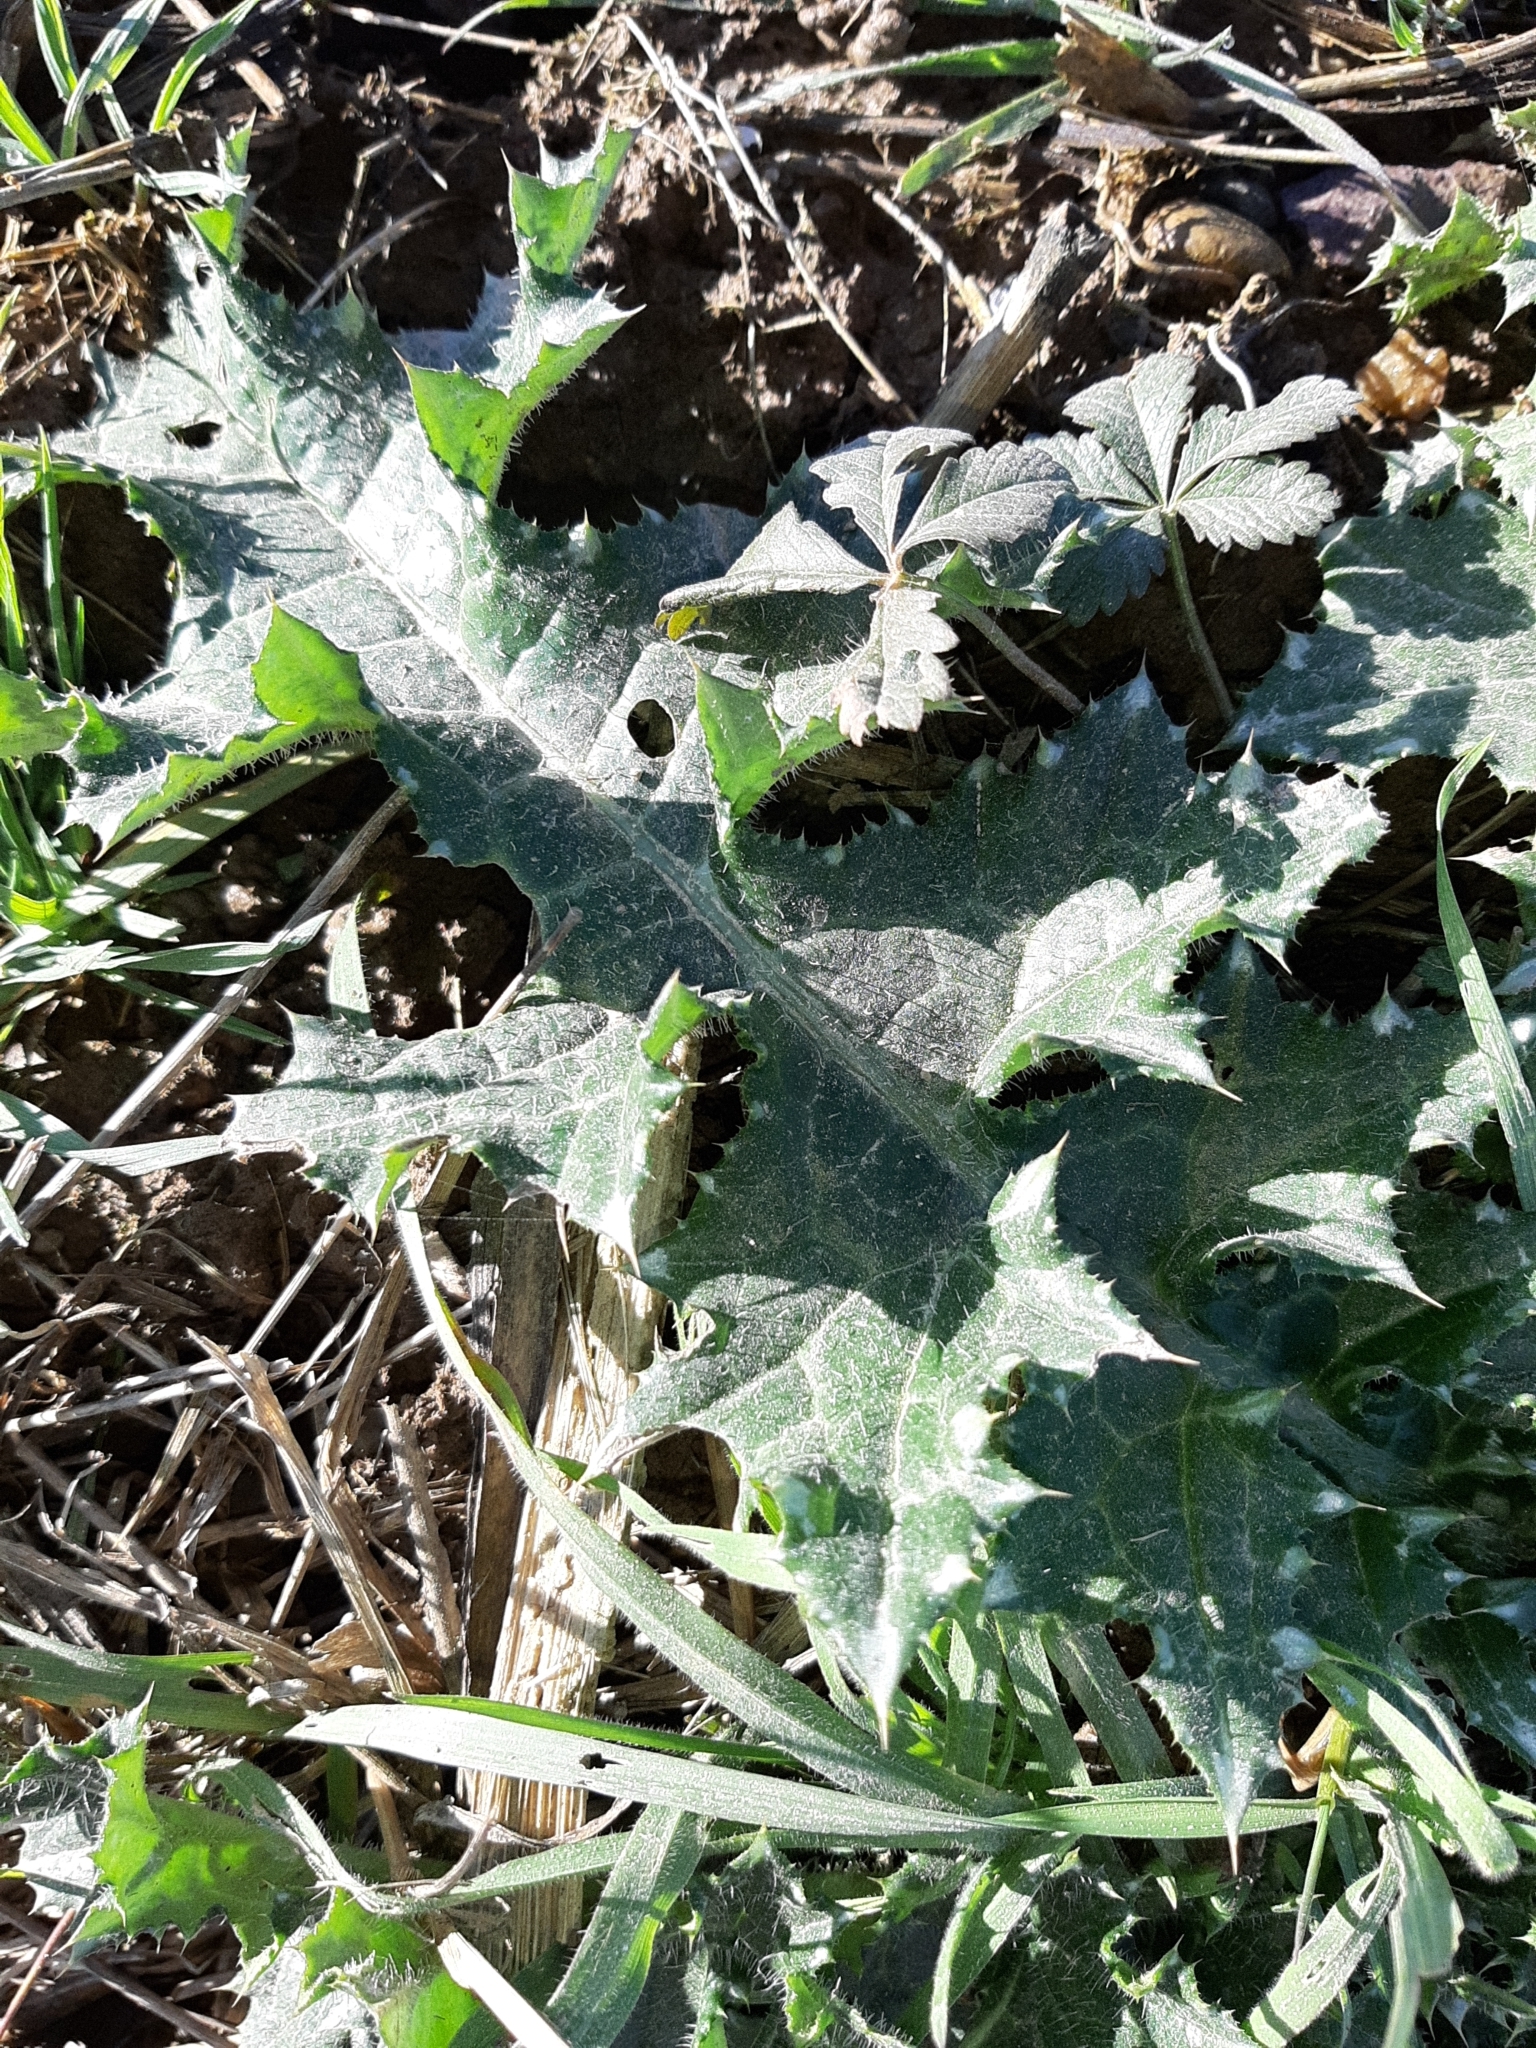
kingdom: Plantae
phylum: Tracheophyta
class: Magnoliopsida
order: Asterales
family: Asteraceae
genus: Carduus
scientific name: Carduus pycnocephalus
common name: Plymouth thistle
